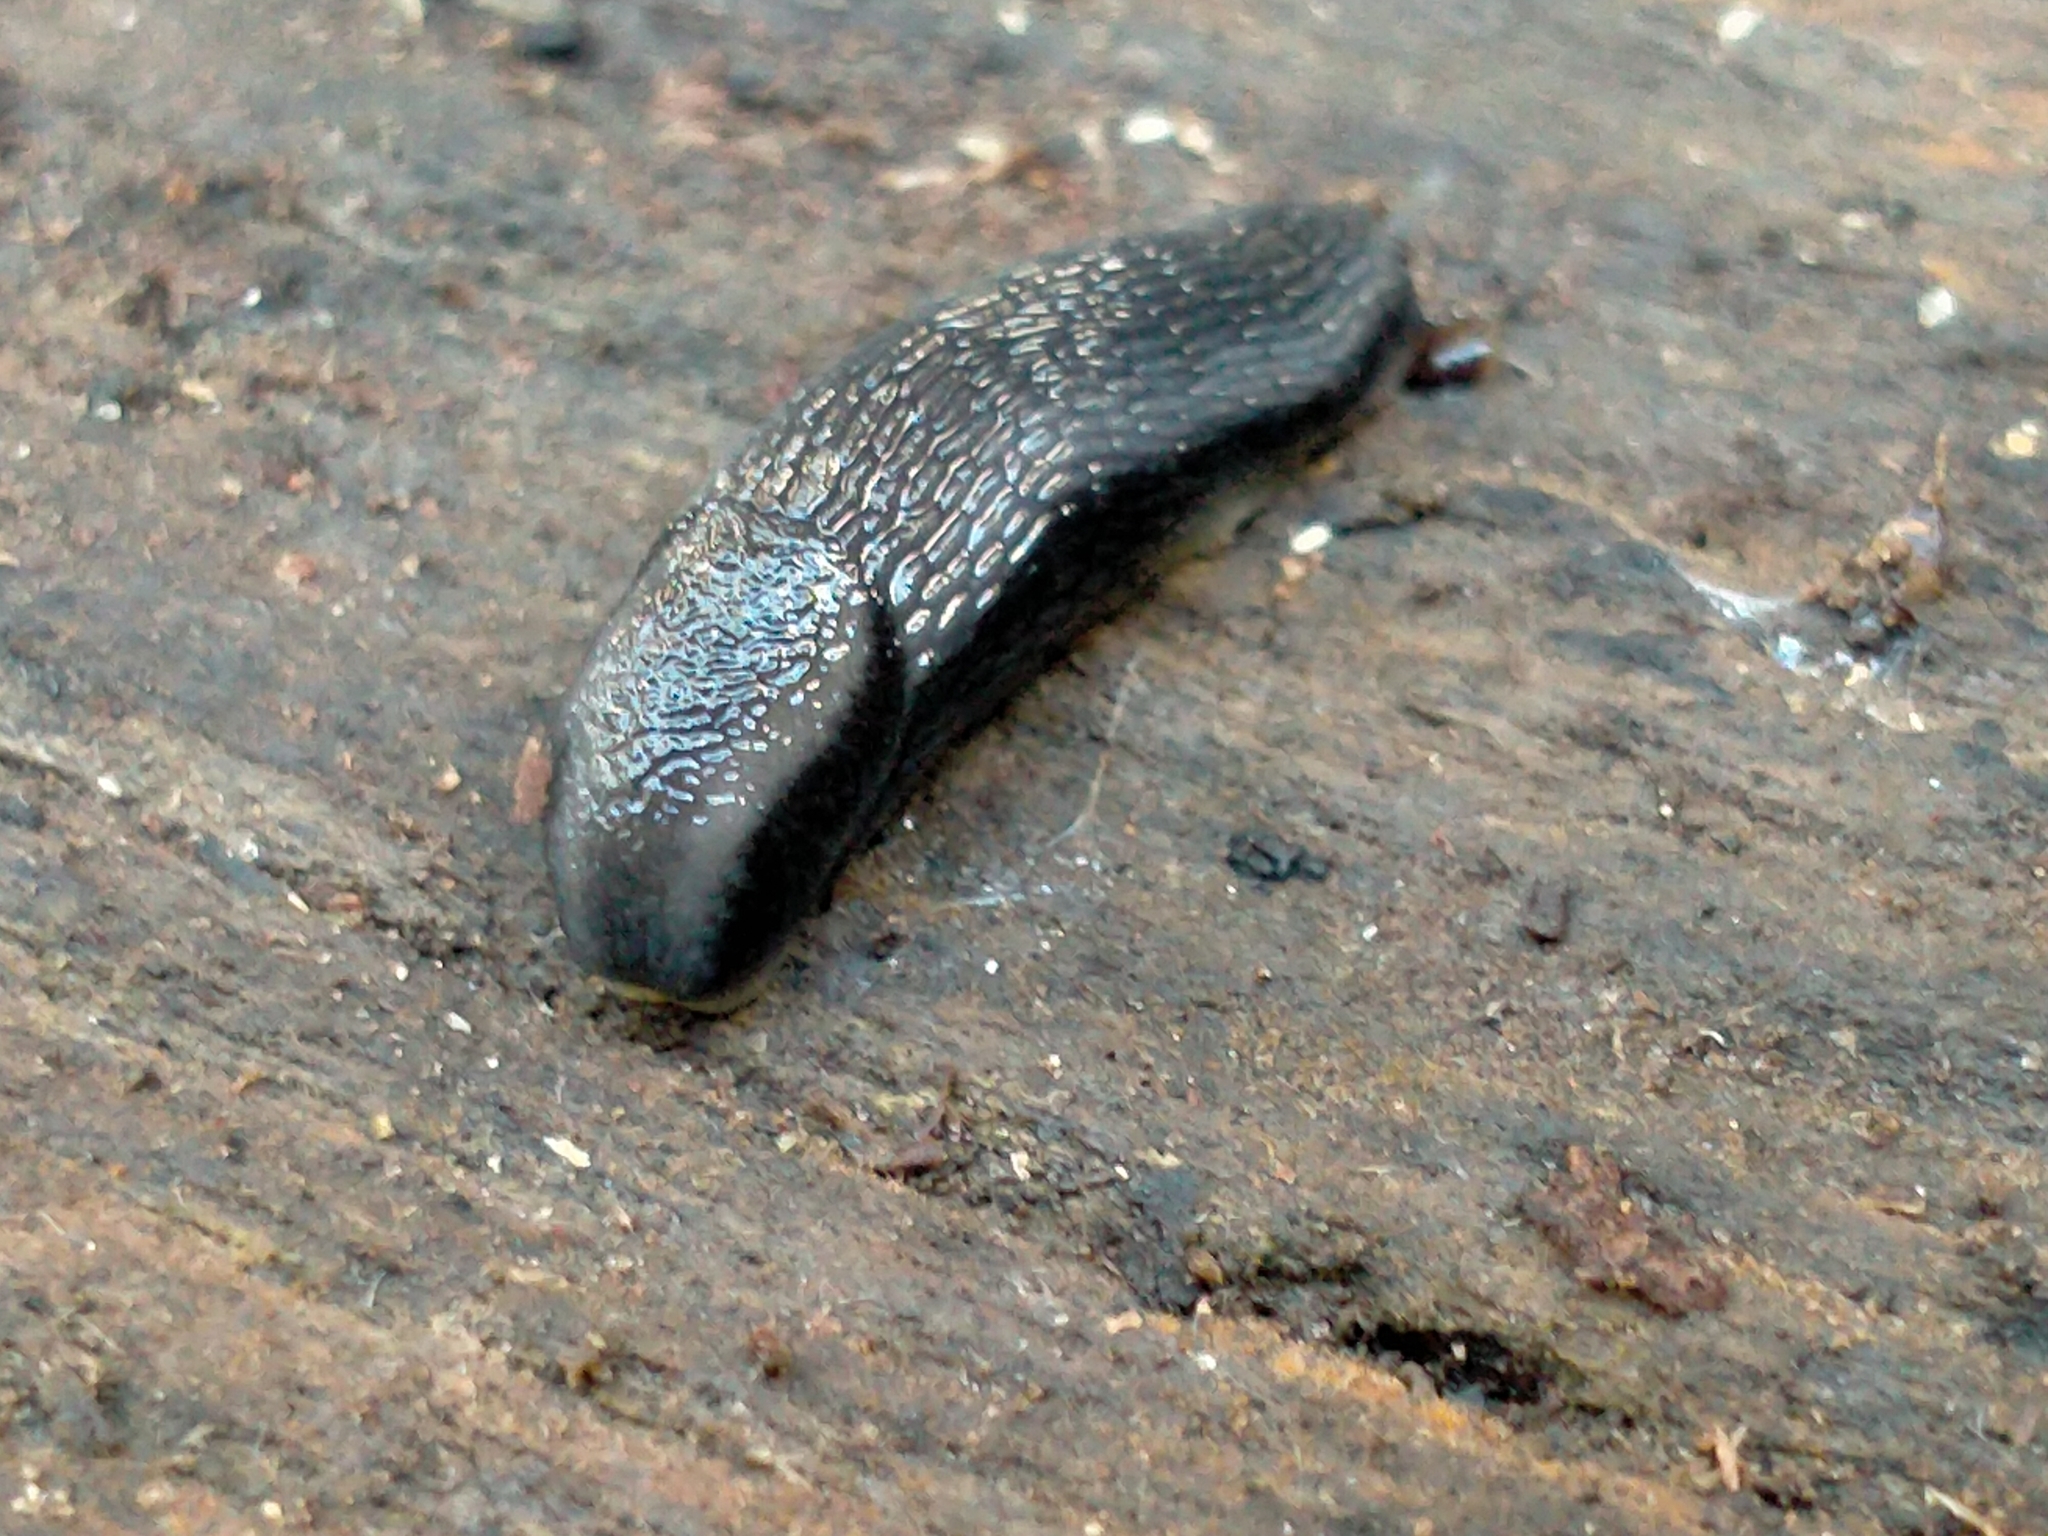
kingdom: Animalia
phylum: Mollusca
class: Gastropoda
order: Stylommatophora
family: Arionidae
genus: Kobeltia
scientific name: Kobeltia
